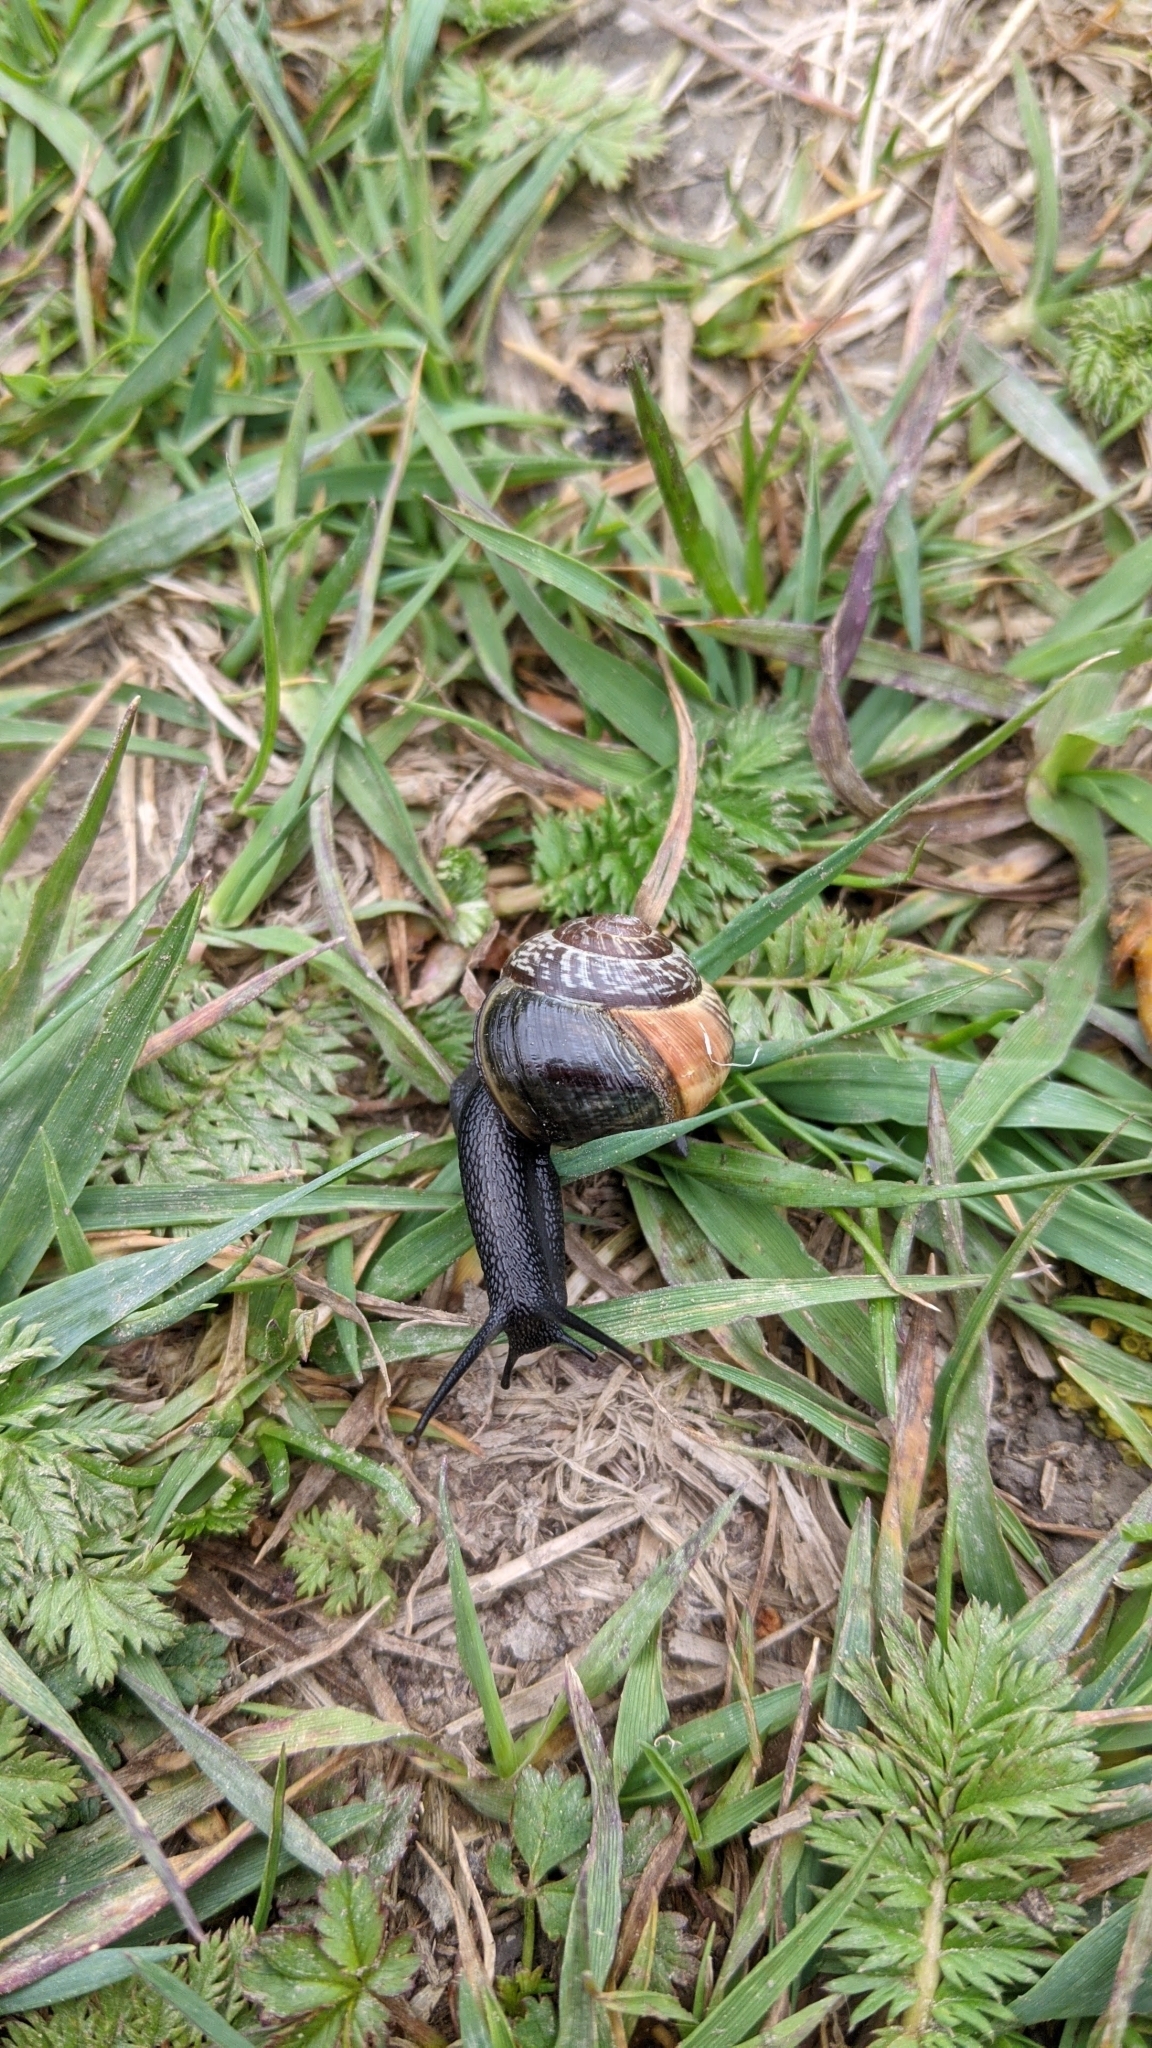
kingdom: Animalia
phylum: Mollusca
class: Gastropoda
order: Stylommatophora
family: Helicidae
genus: Arianta
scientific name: Arianta arbustorum
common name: Copse snail
